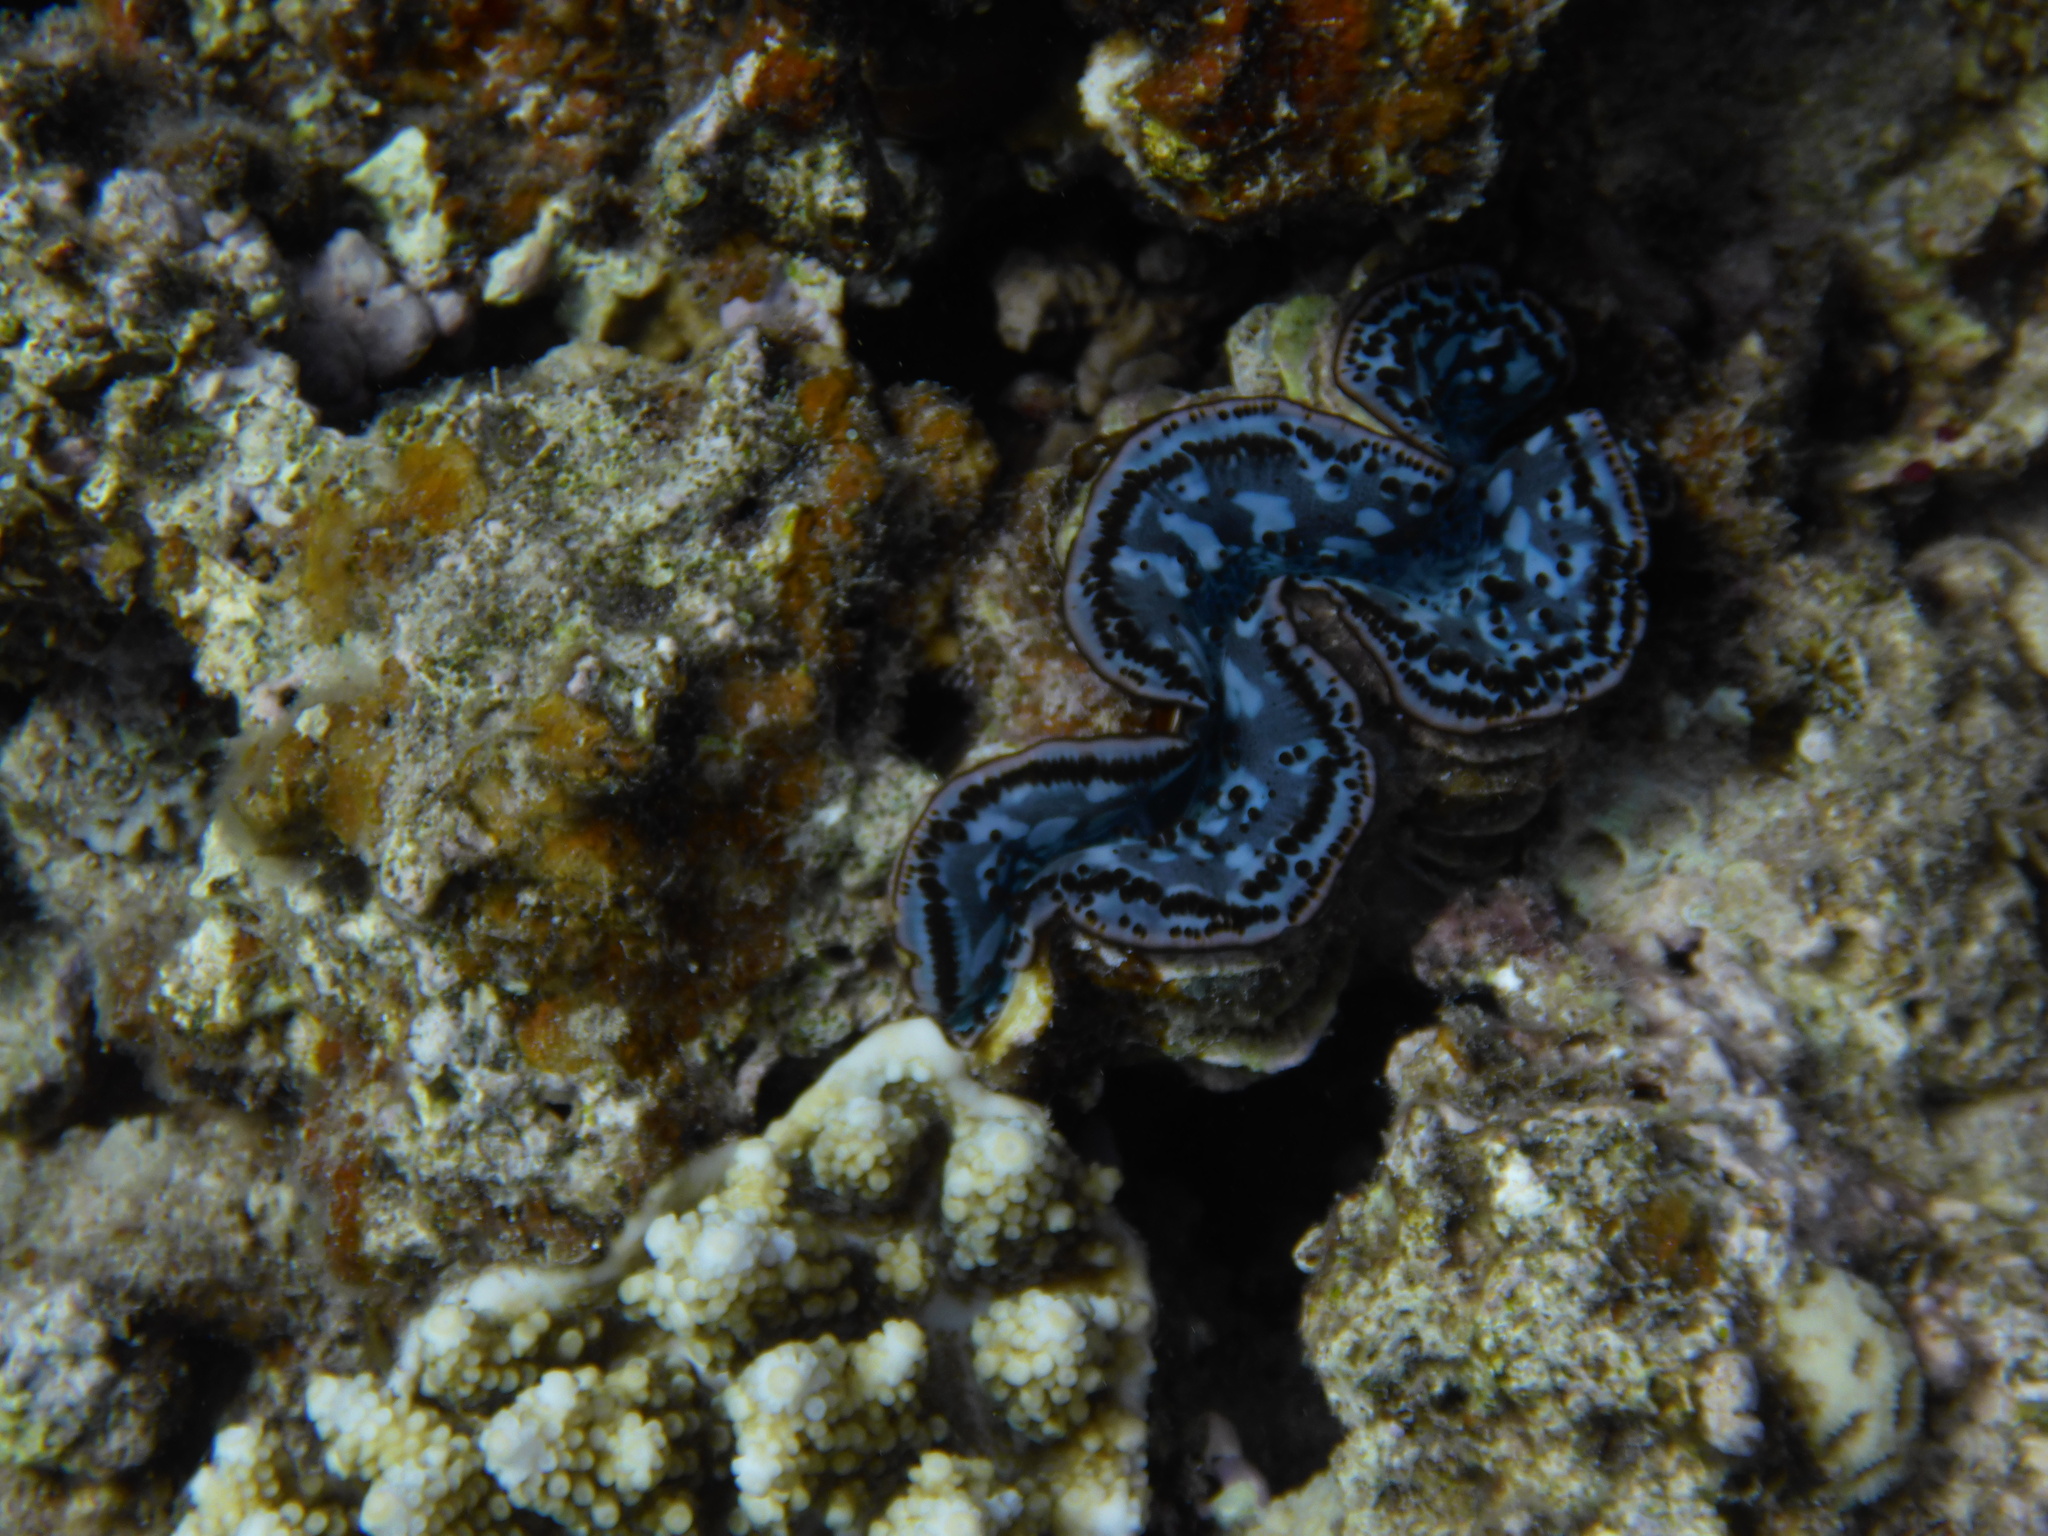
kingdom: Animalia
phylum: Mollusca
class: Bivalvia
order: Cardiida
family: Cardiidae
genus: Tridacna
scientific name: Tridacna maxima
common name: Small giant clam
